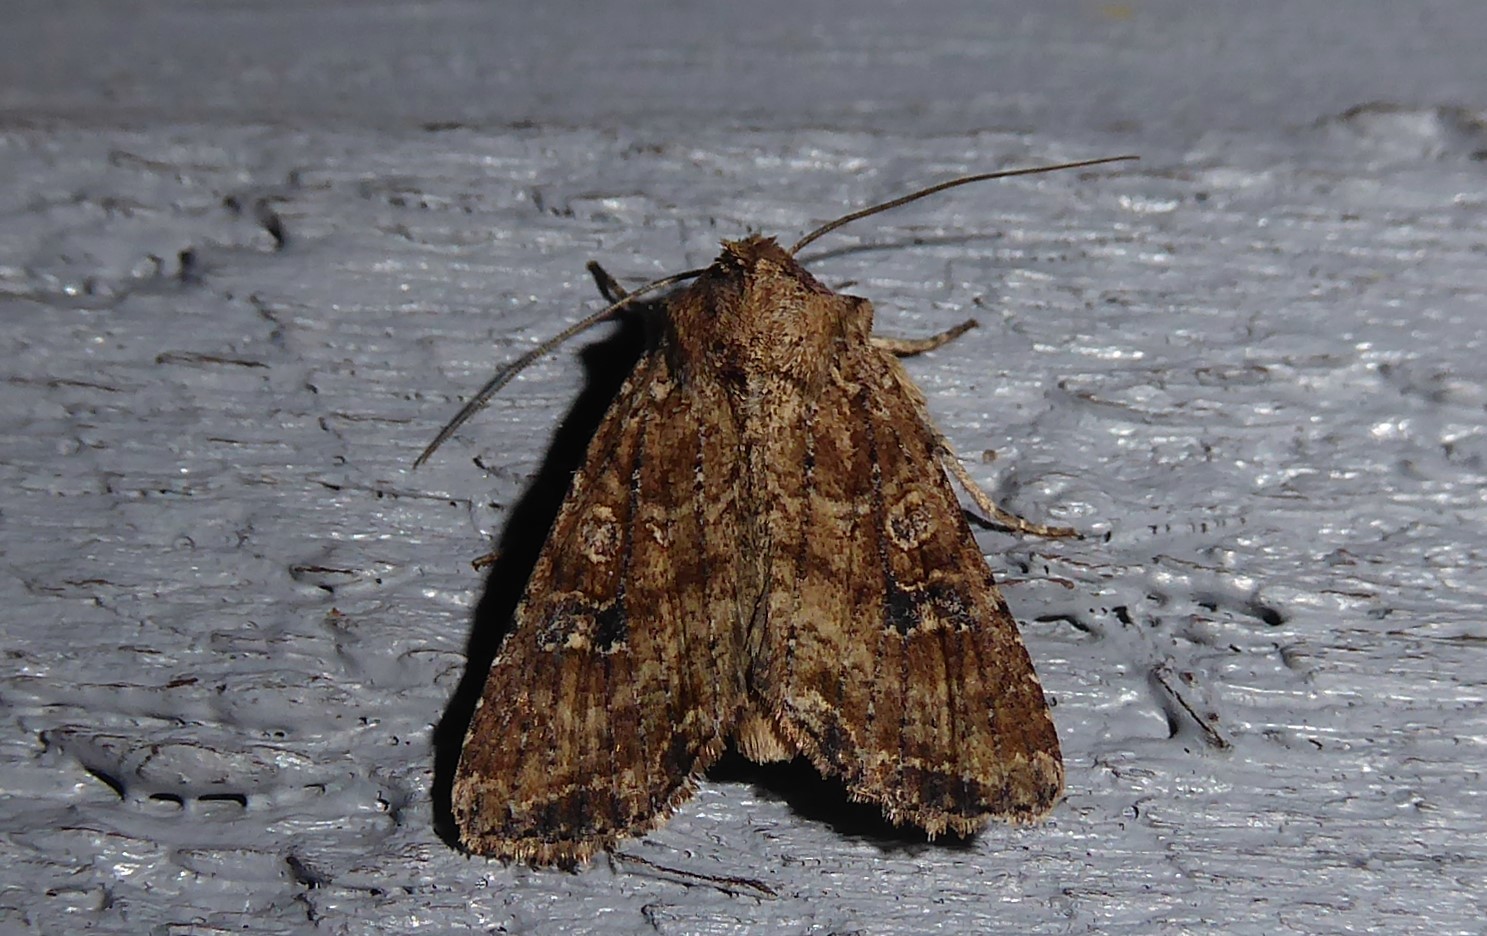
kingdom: Animalia
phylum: Arthropoda
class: Insecta
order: Lepidoptera
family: Noctuidae
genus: Ichneutica
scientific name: Ichneutica morosa
